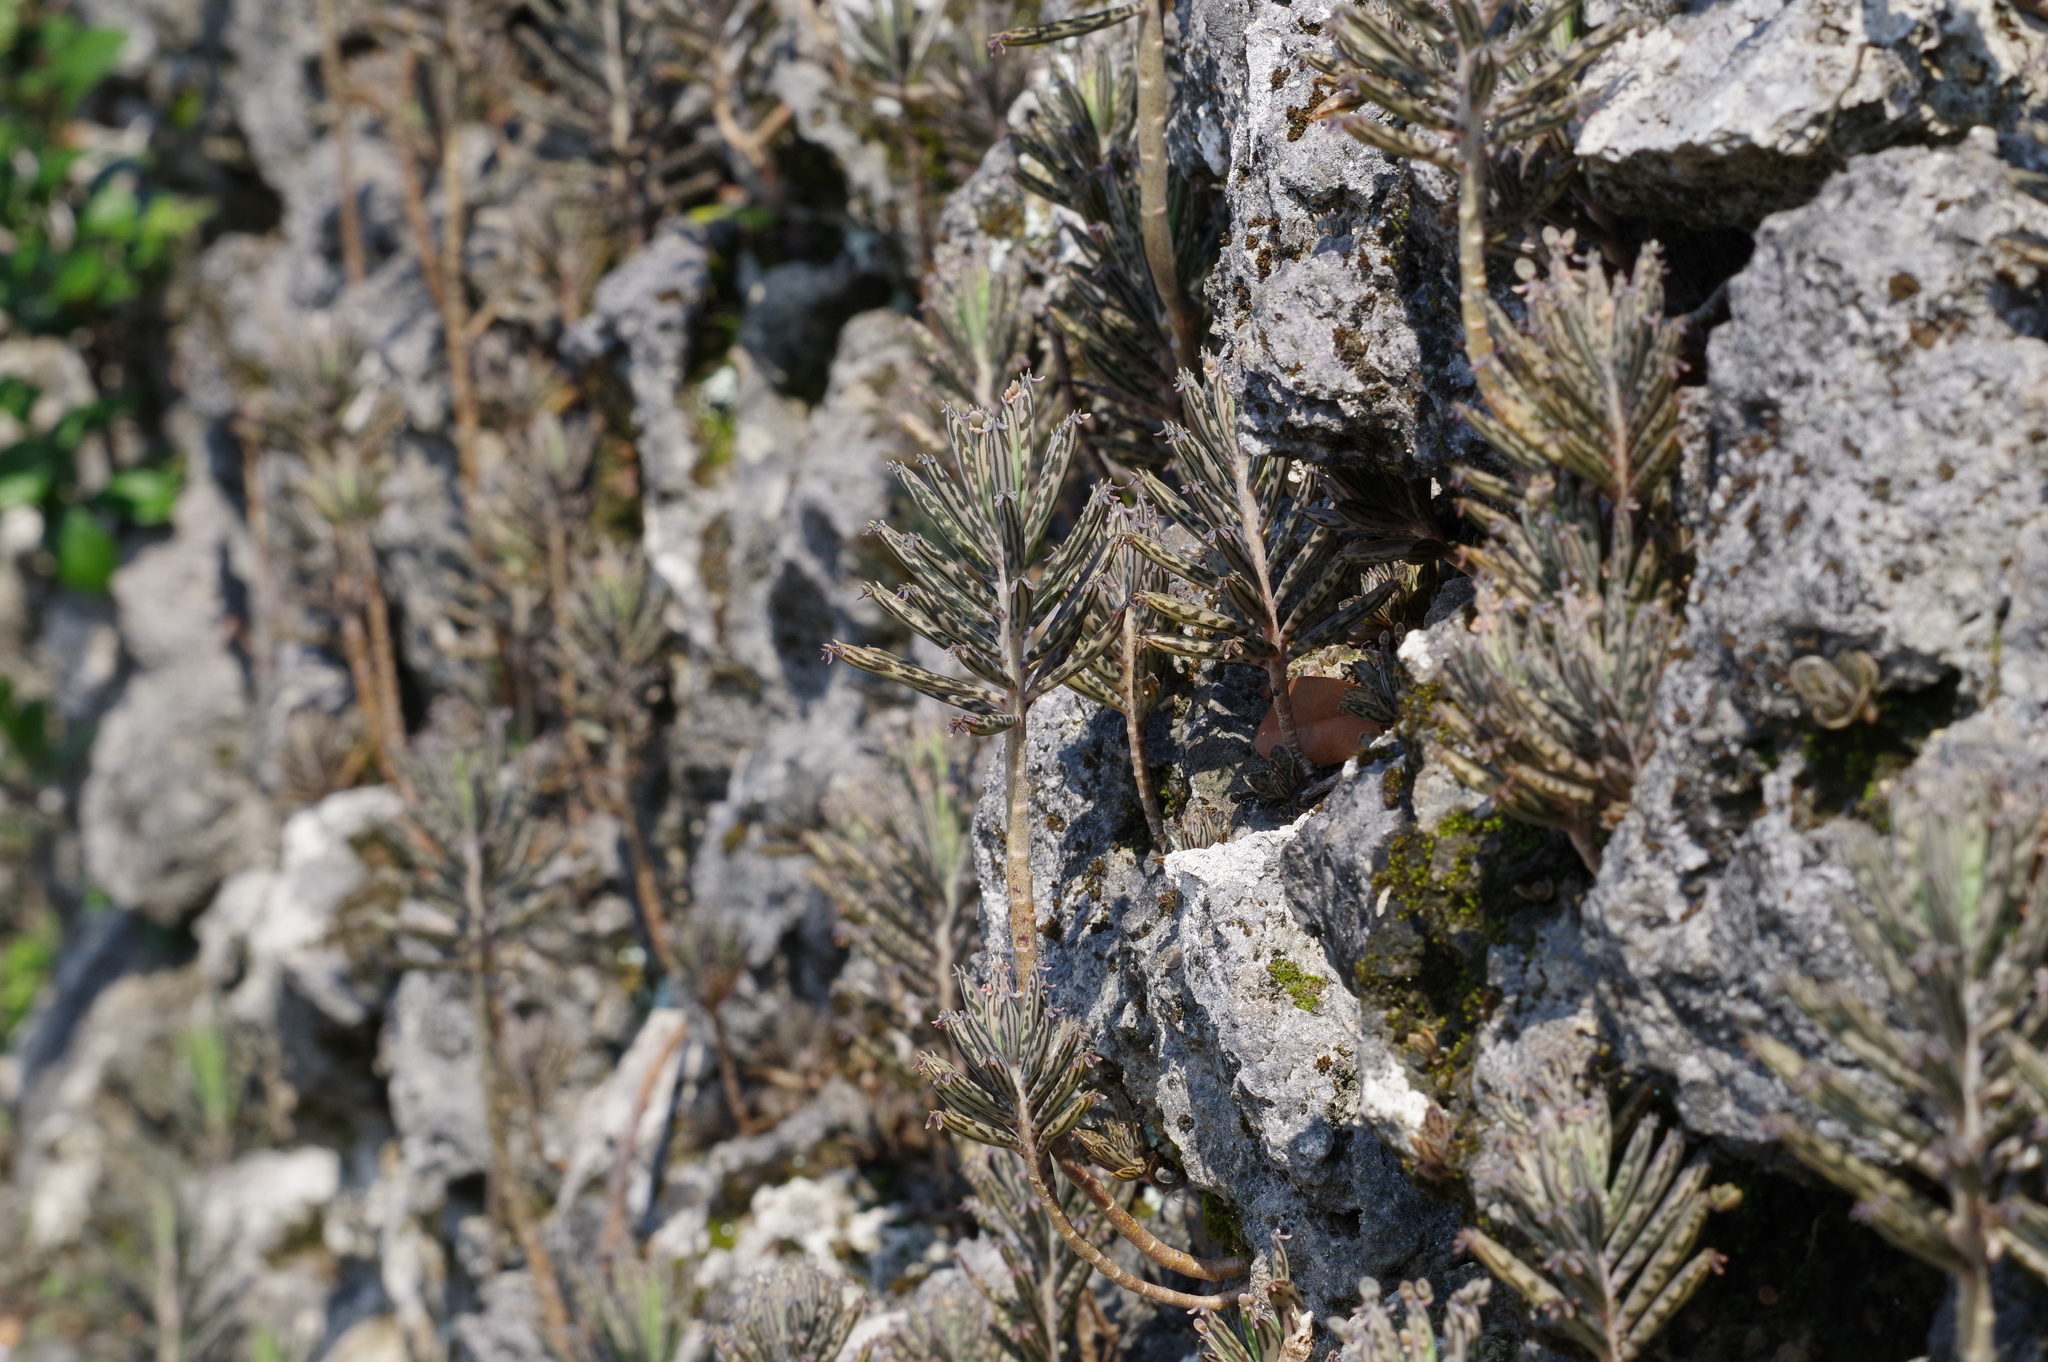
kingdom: Plantae
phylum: Tracheophyta
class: Magnoliopsida
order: Saxifragales
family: Crassulaceae
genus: Kalanchoe
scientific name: Kalanchoe delagoensis
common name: Chandelier plant
